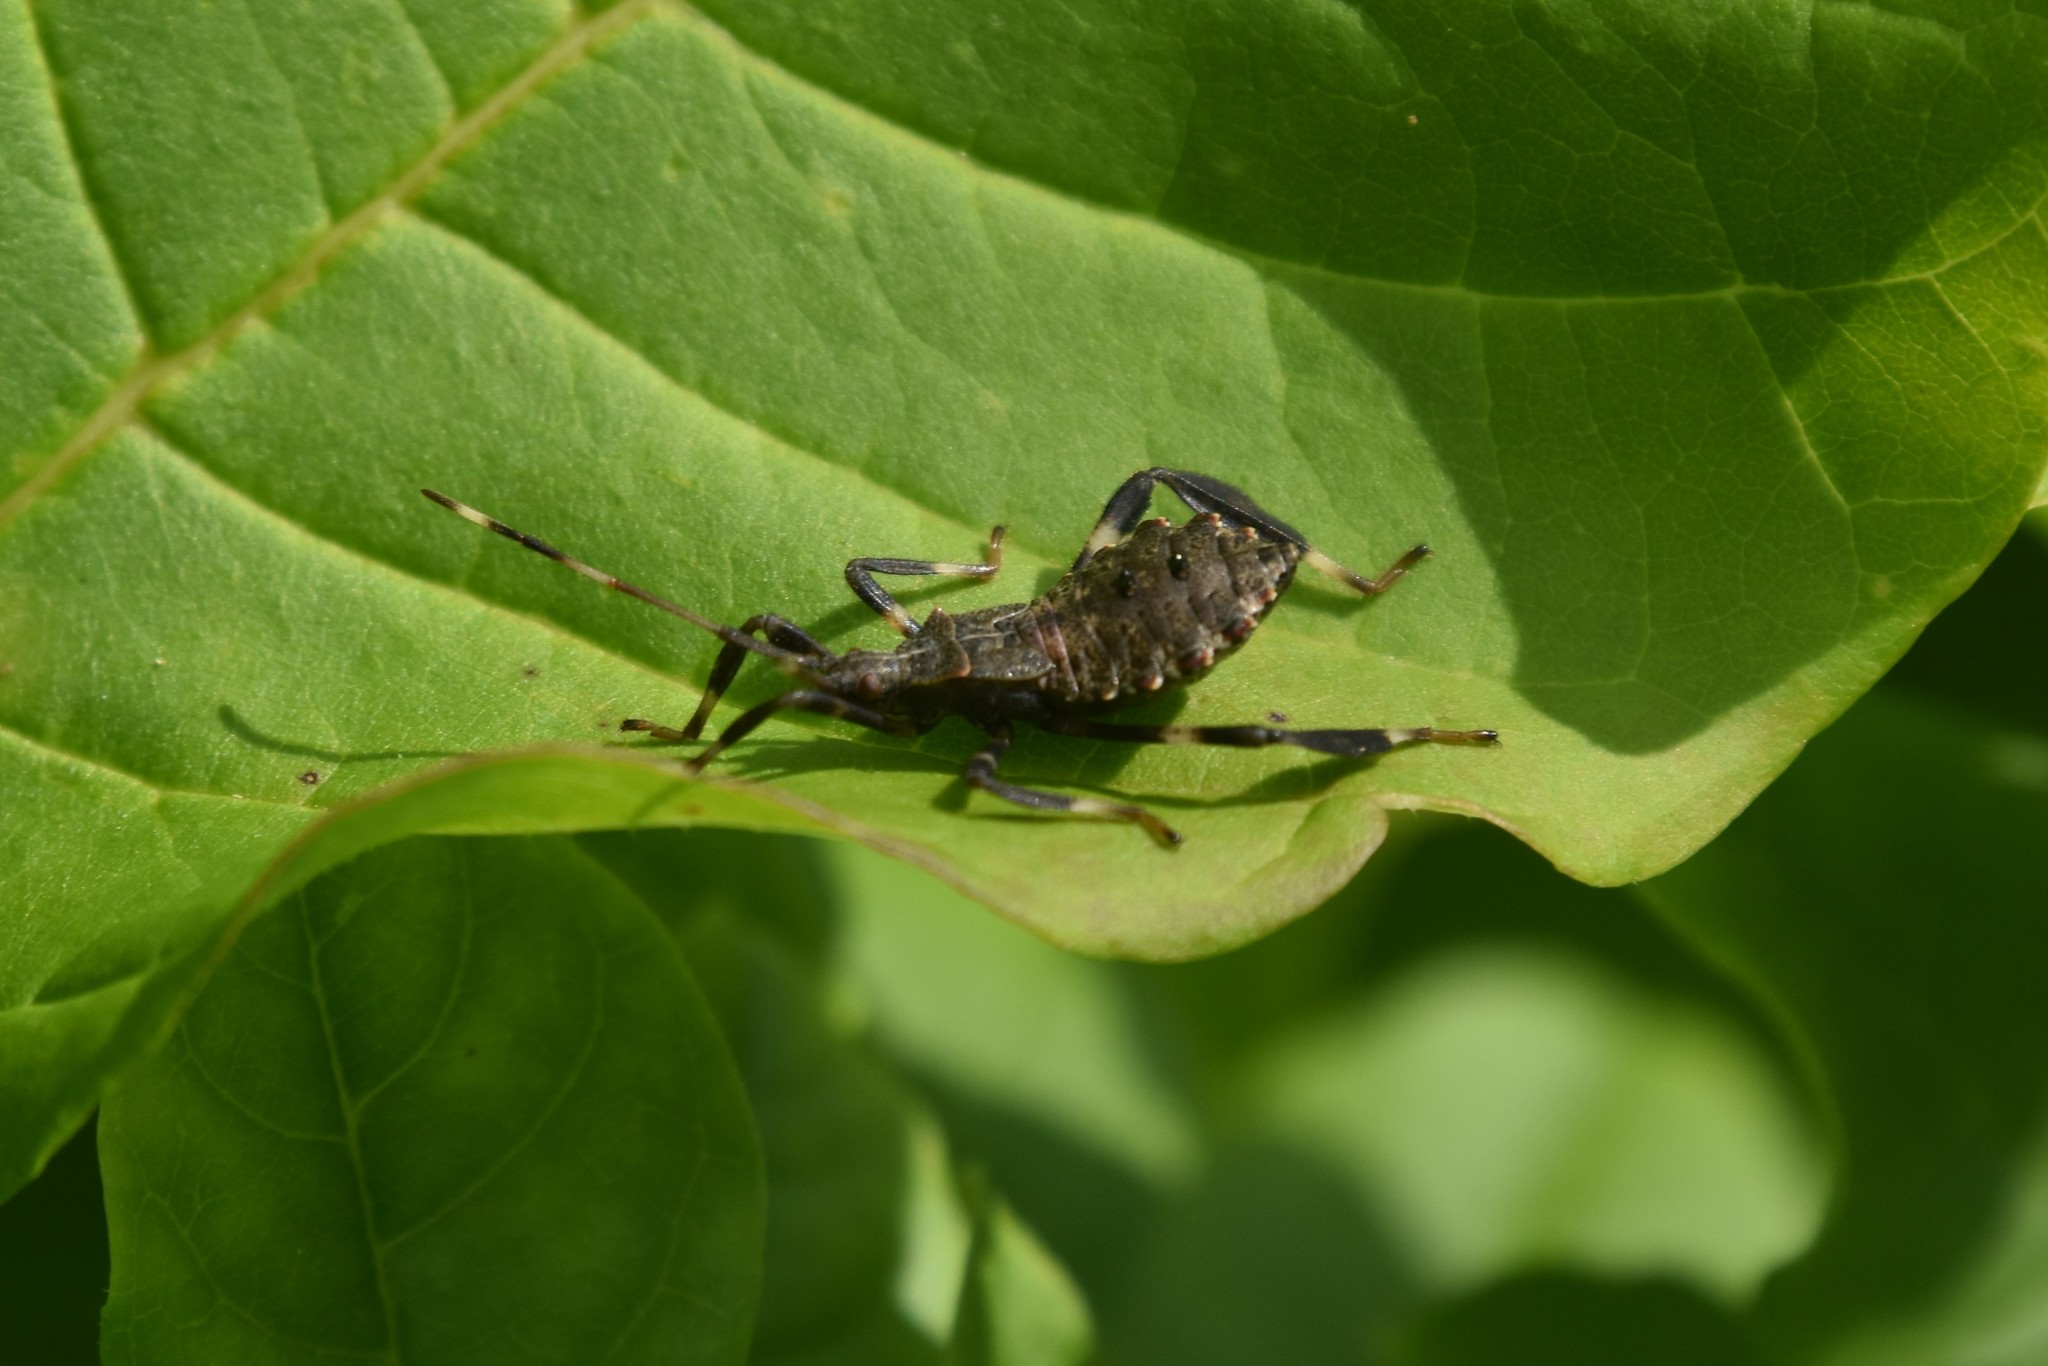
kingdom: Animalia
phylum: Arthropoda
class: Insecta
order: Hemiptera
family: Coreidae
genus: Acanthocephala
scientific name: Acanthocephala terminalis
